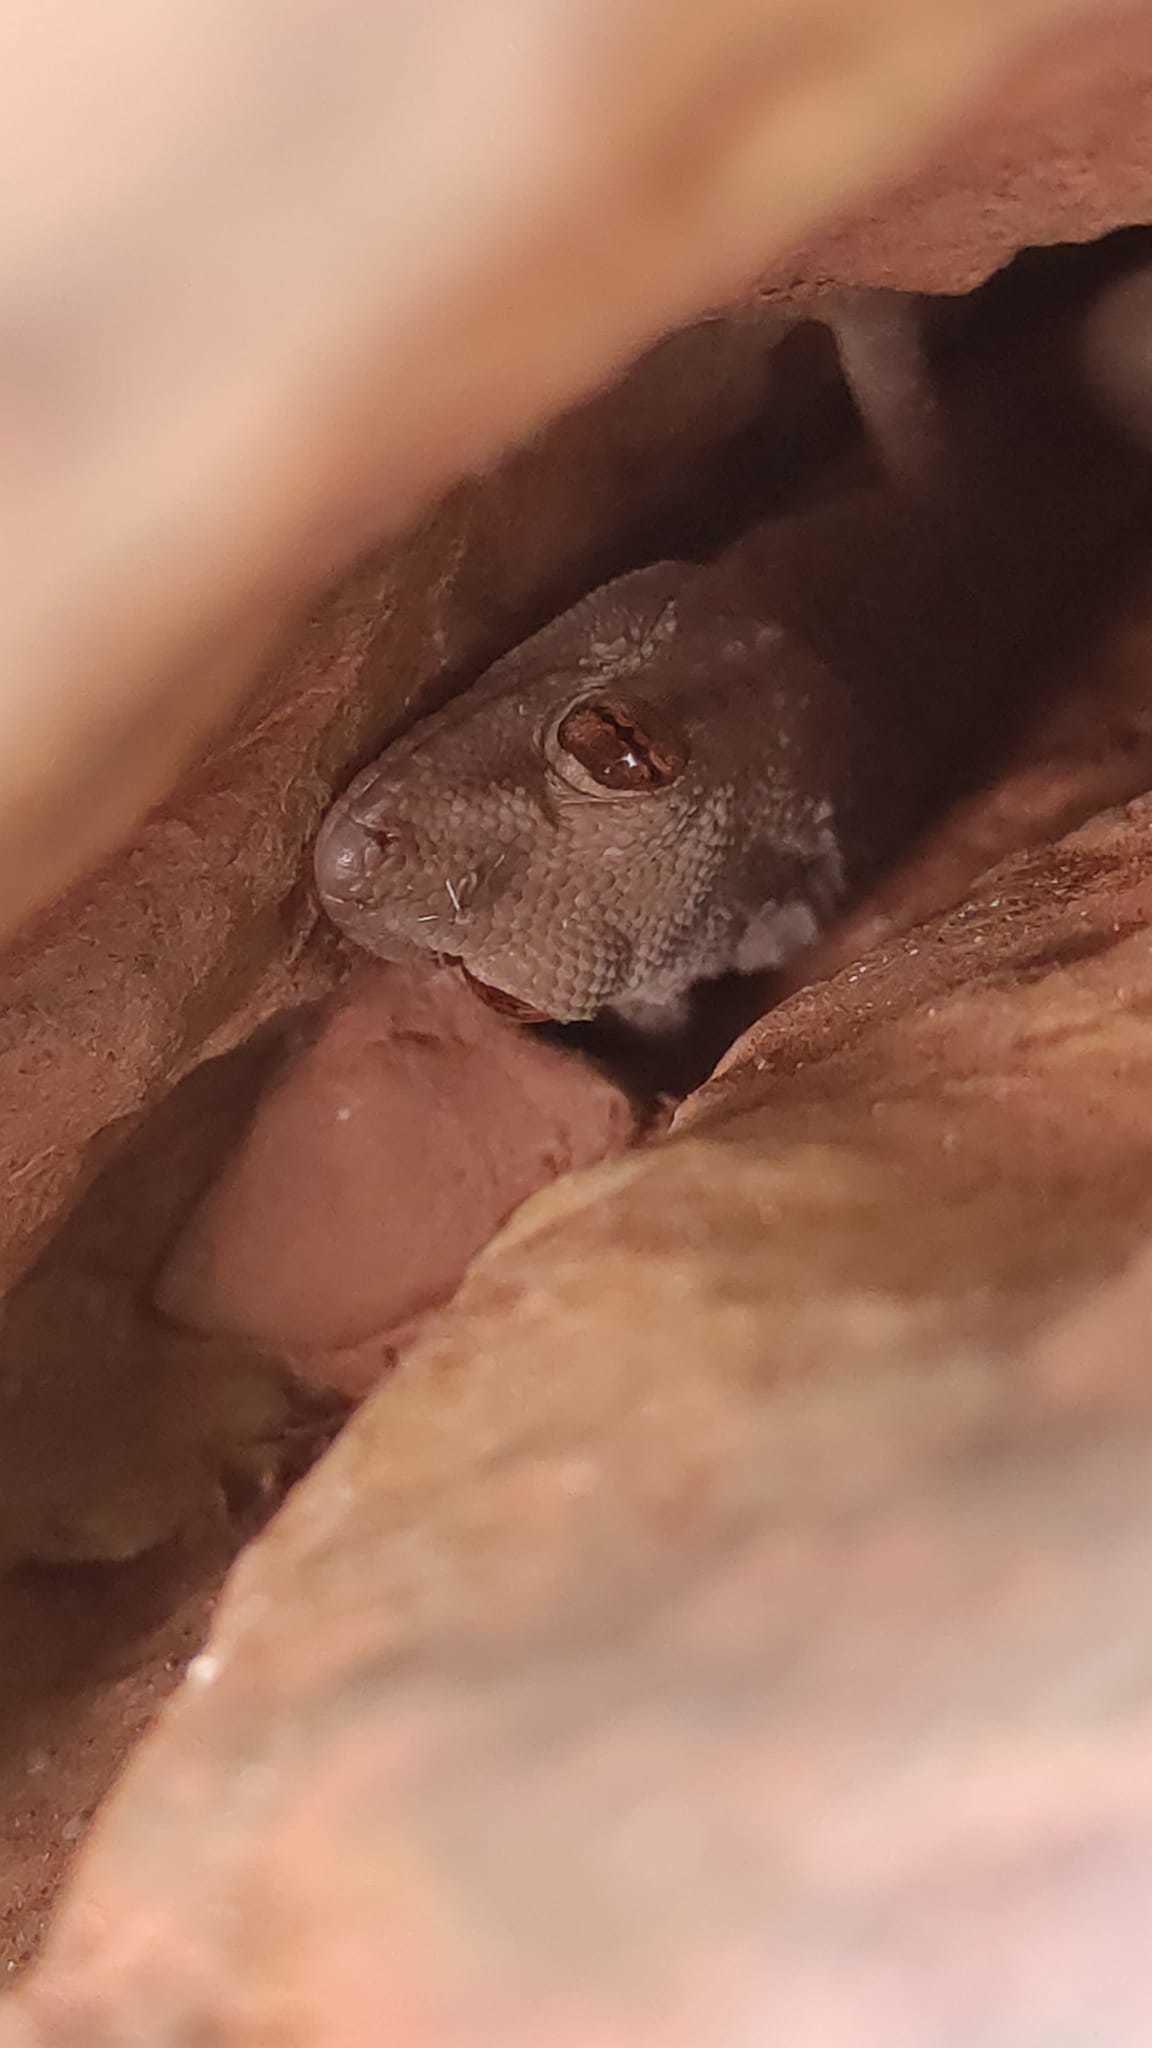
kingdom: Animalia
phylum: Chordata
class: Squamata
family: Phyllodactylidae
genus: Tarentola
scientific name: Tarentola mauritanica
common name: Moorish gecko
